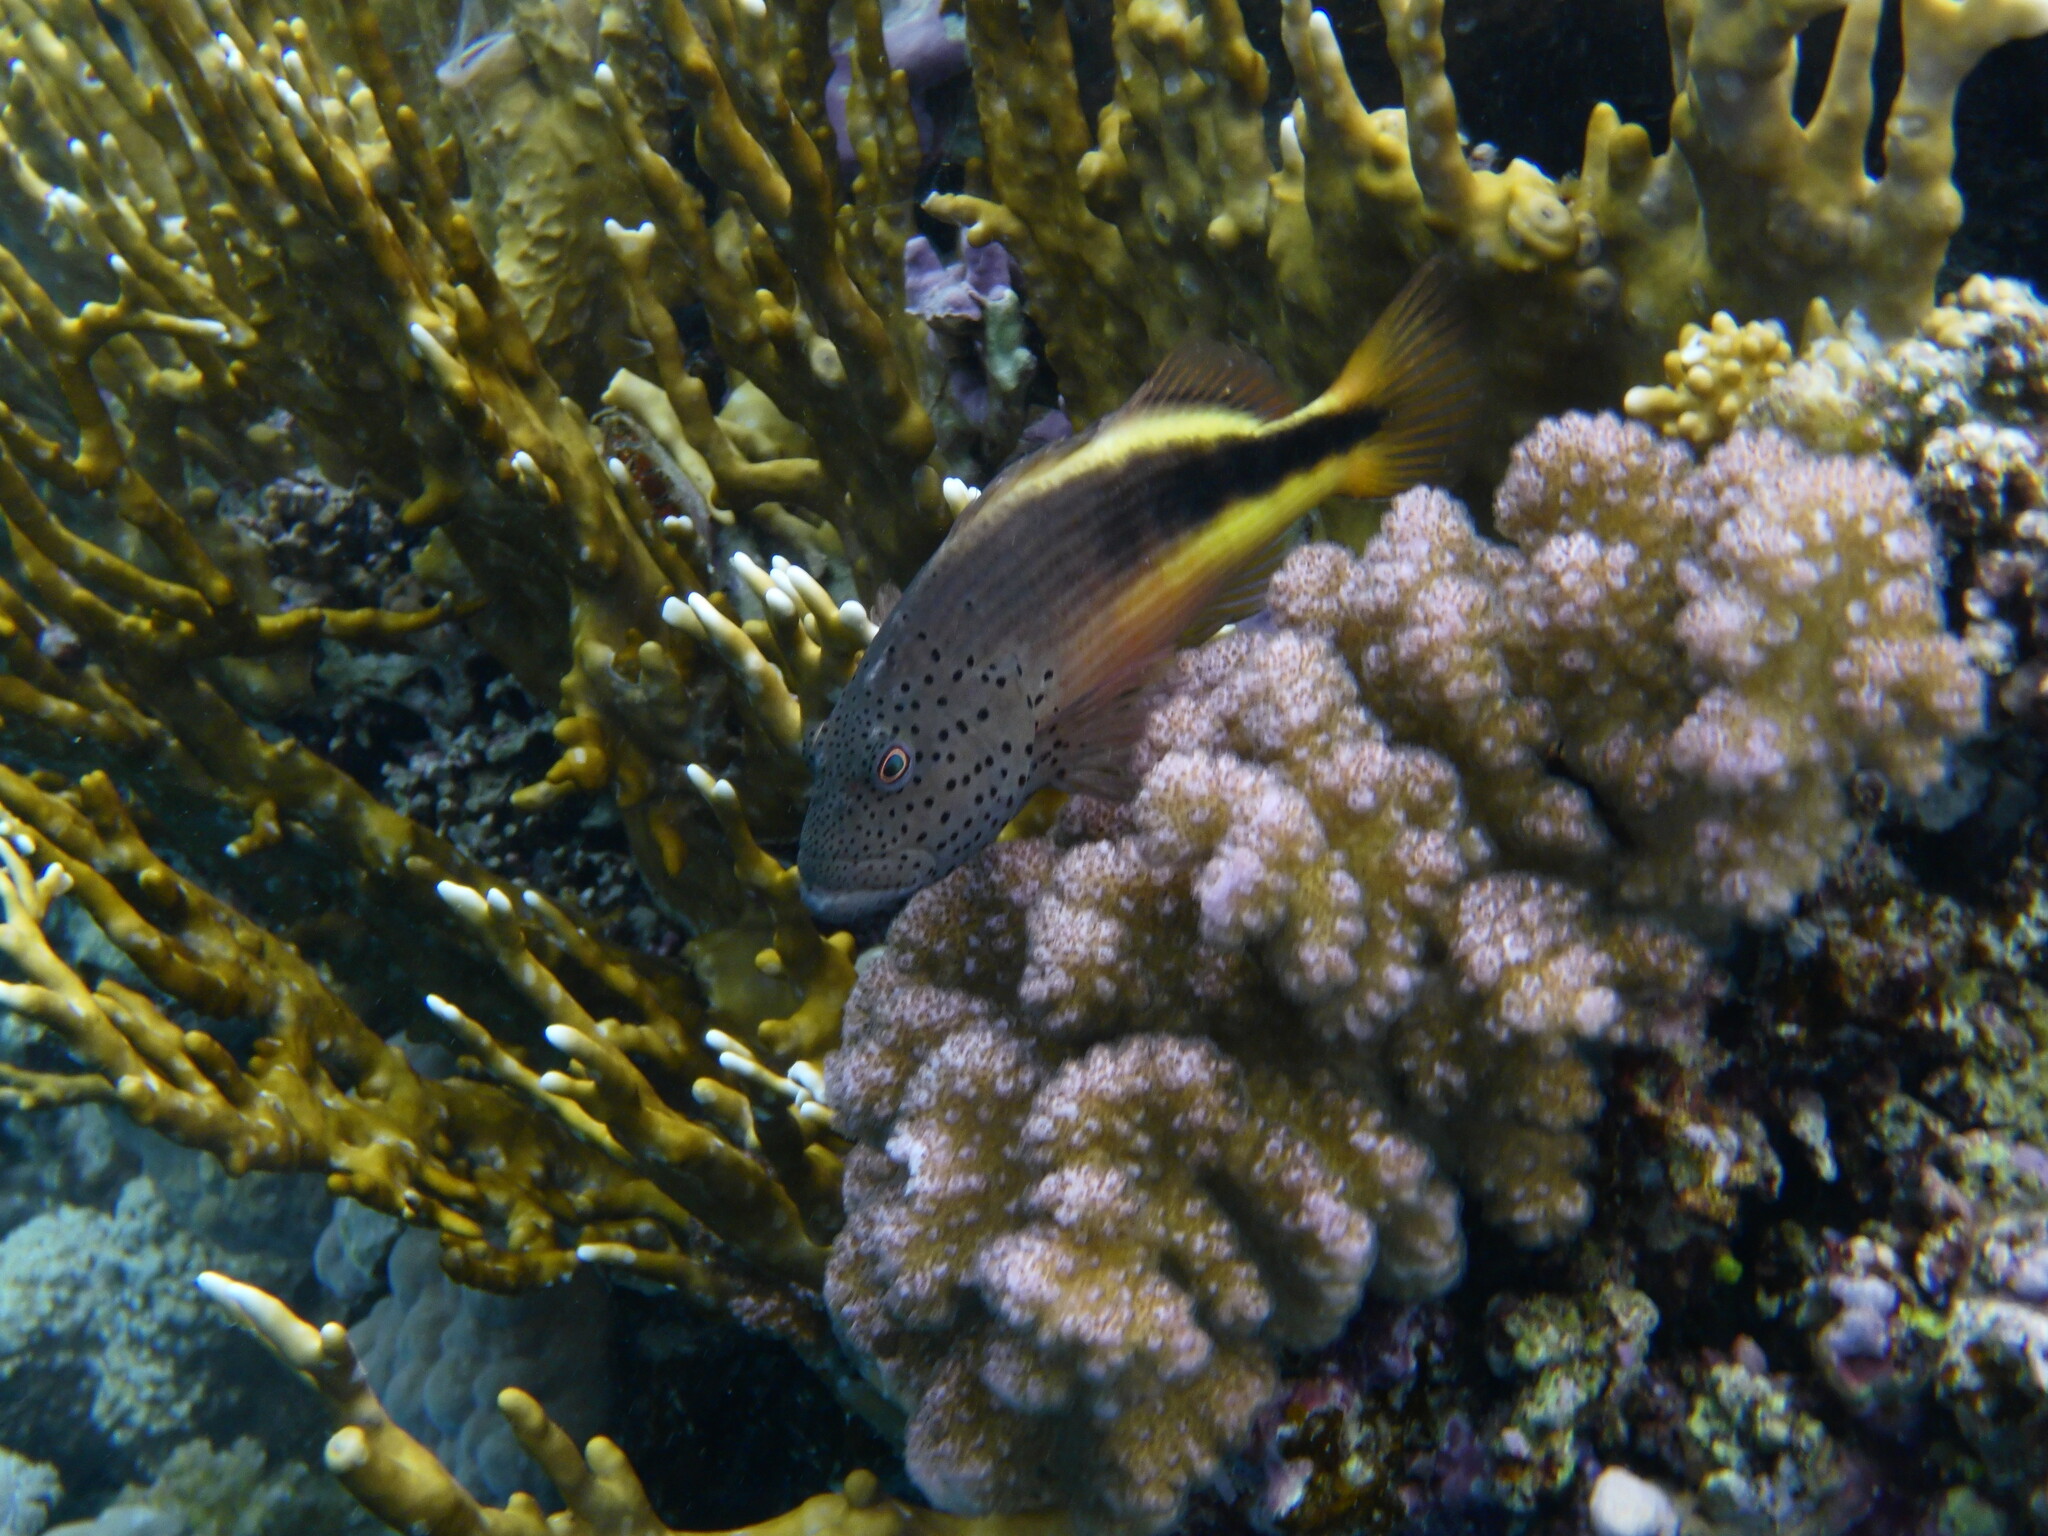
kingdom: Animalia
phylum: Chordata
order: Perciformes
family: Cirrhitidae
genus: Paracirrhites
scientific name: Paracirrhites forsteri
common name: Freckled hawkfish
